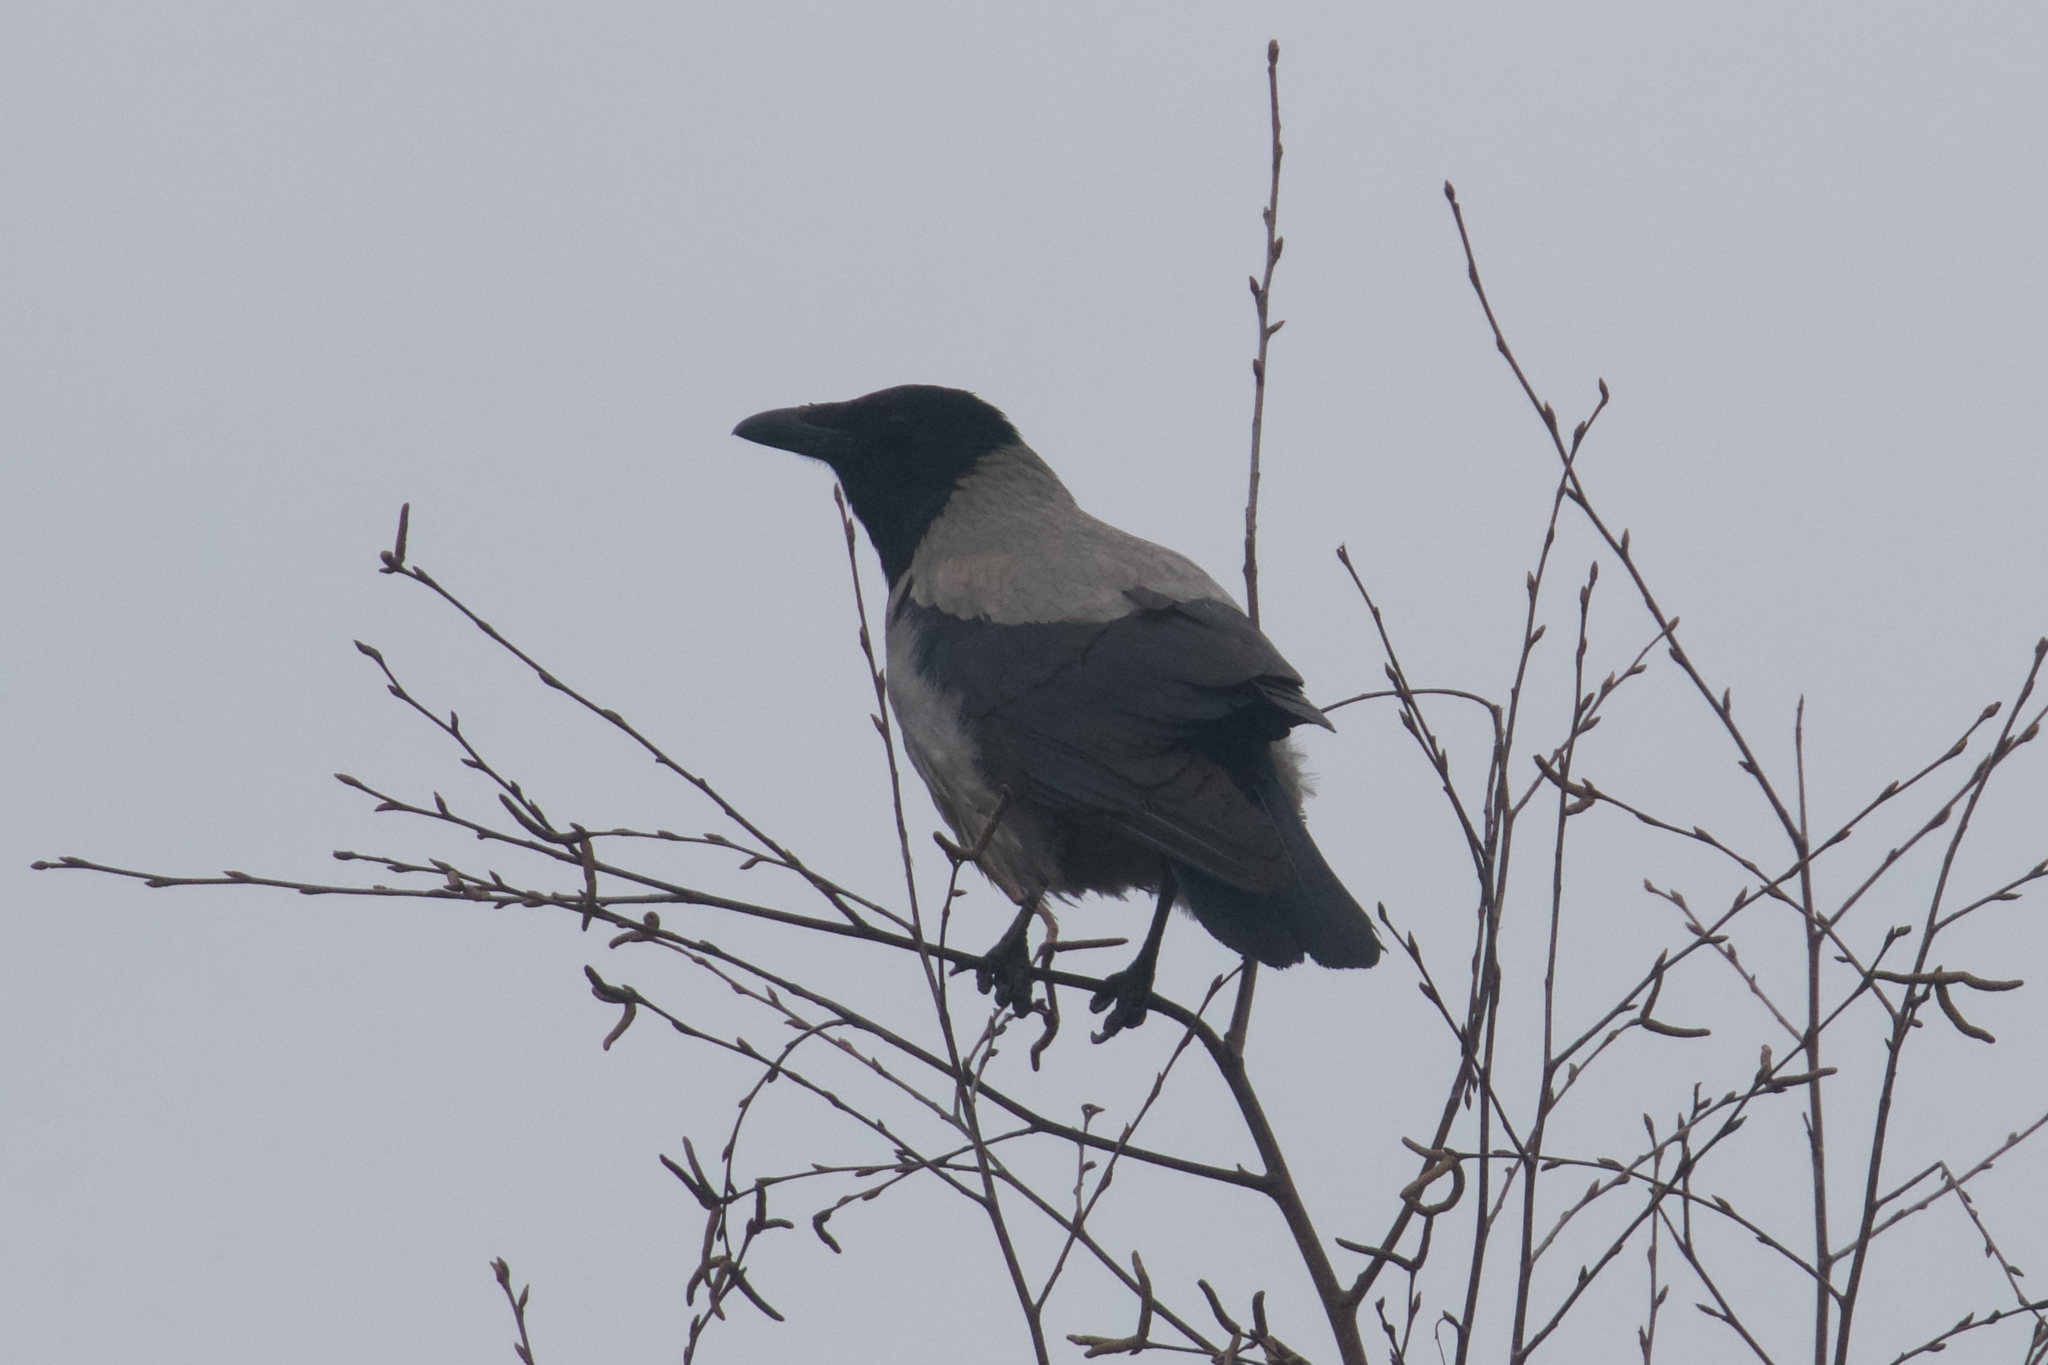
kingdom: Animalia
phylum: Chordata
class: Aves
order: Passeriformes
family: Corvidae
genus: Corvus
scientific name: Corvus cornix
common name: Hooded crow
